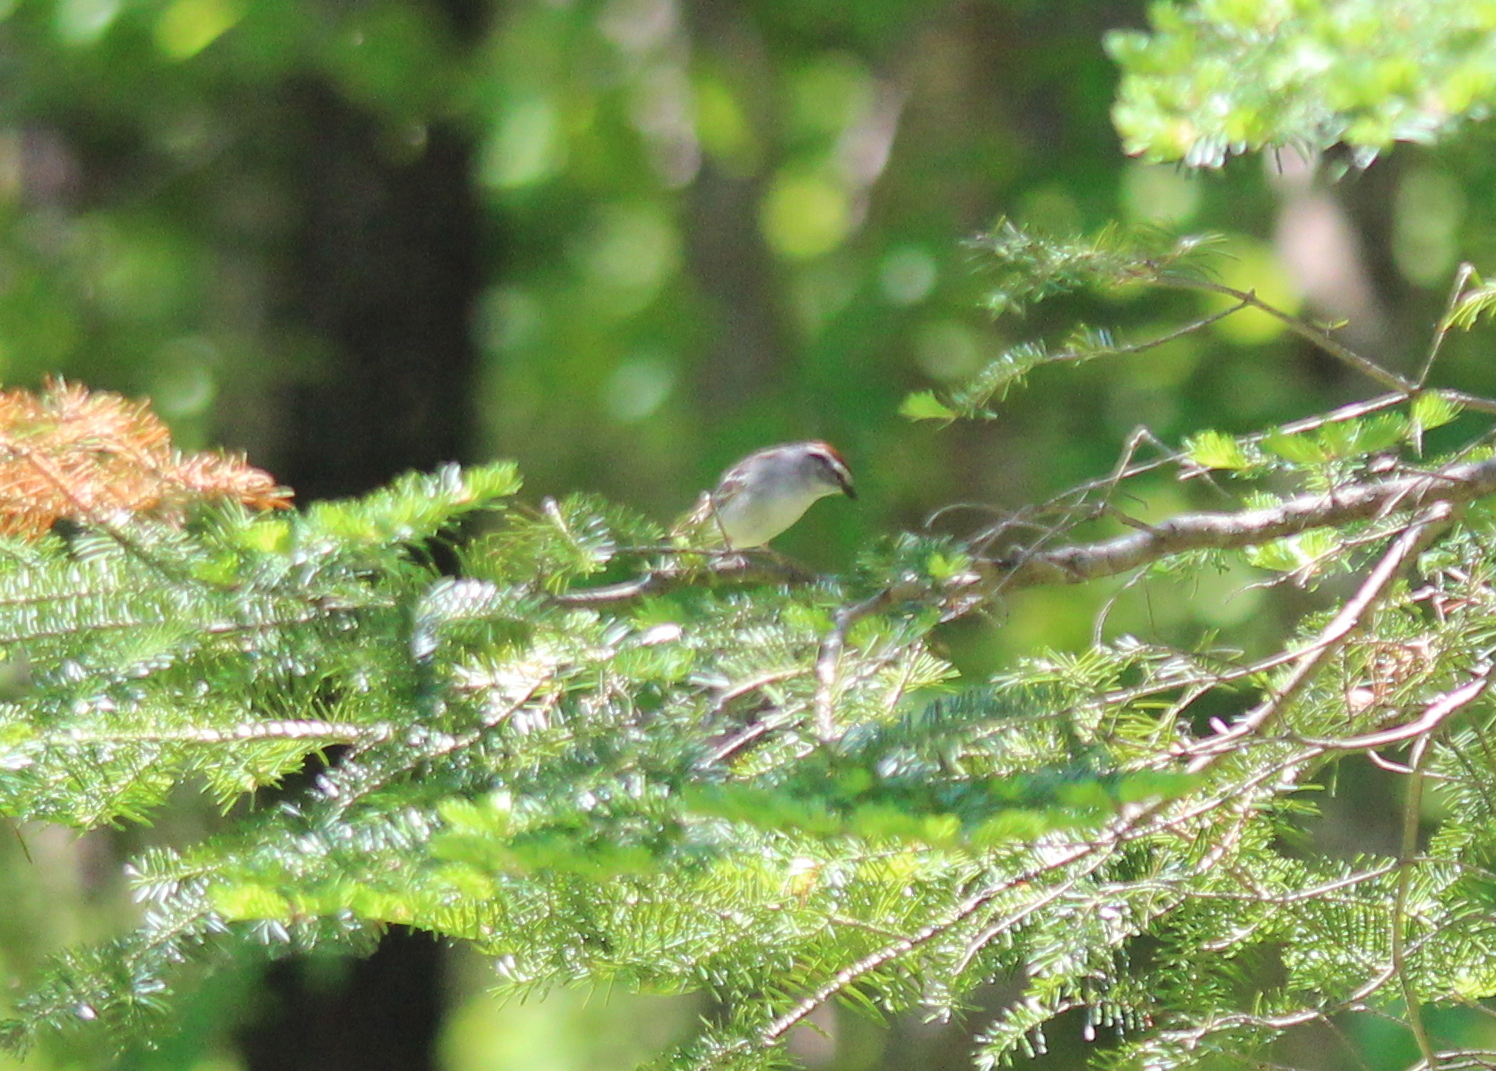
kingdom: Animalia
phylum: Chordata
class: Aves
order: Passeriformes
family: Passerellidae
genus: Spizella
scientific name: Spizella passerina
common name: Chipping sparrow
